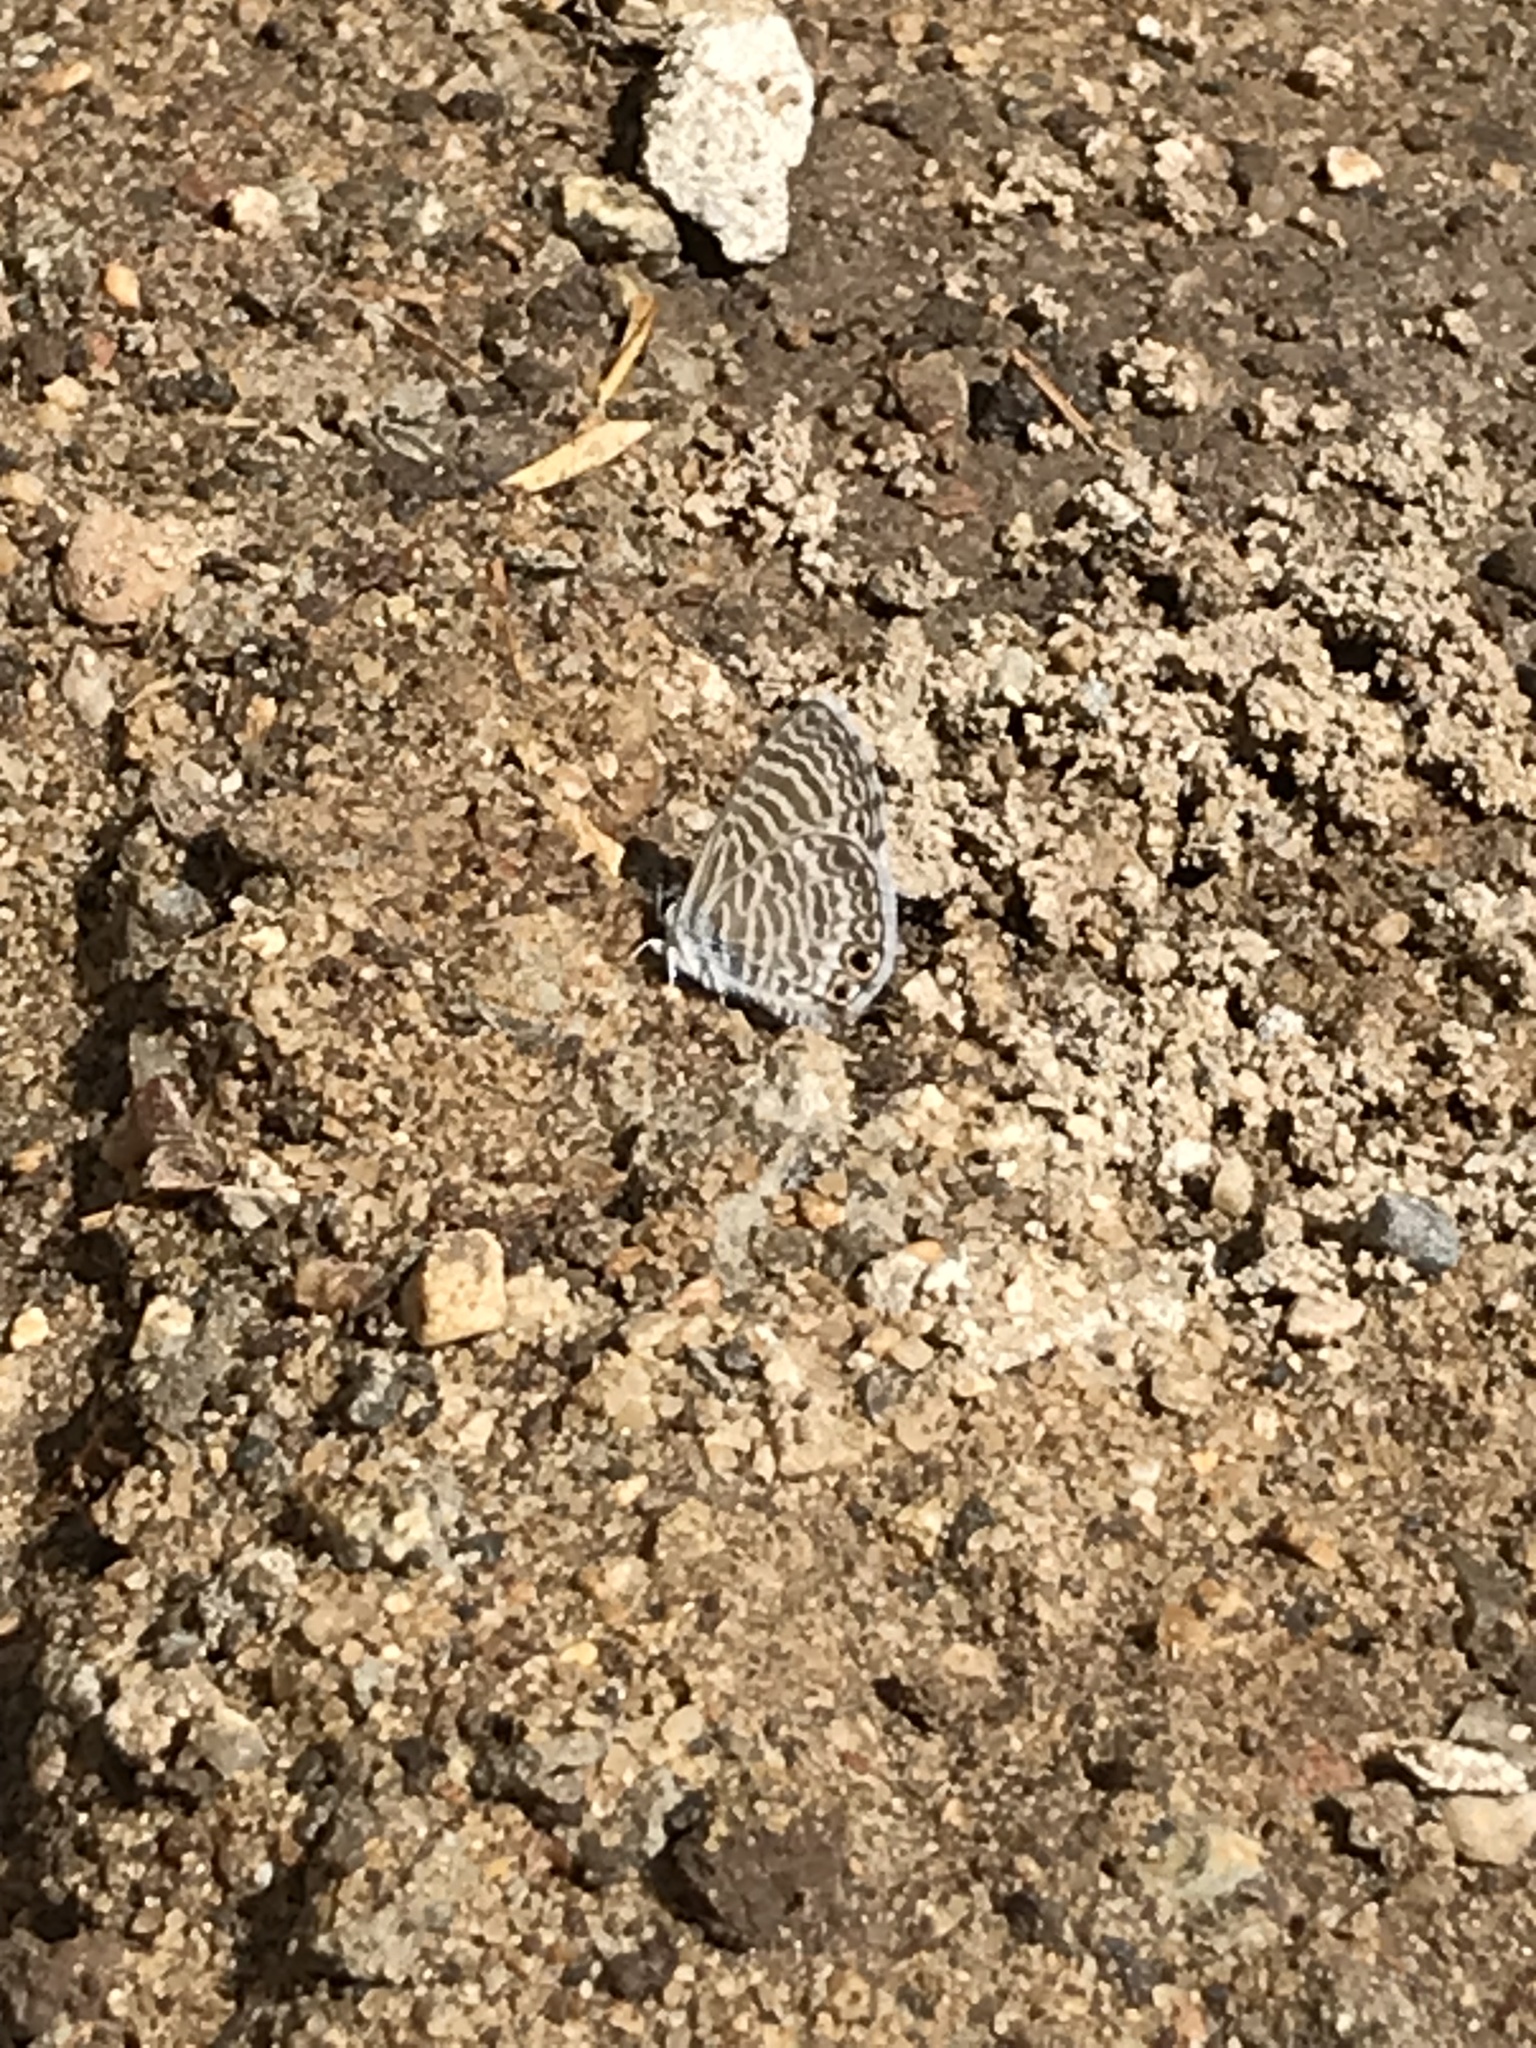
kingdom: Animalia
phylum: Arthropoda
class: Insecta
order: Lepidoptera
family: Lycaenidae
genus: Leptotes
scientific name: Leptotes marina
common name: Marine blue
